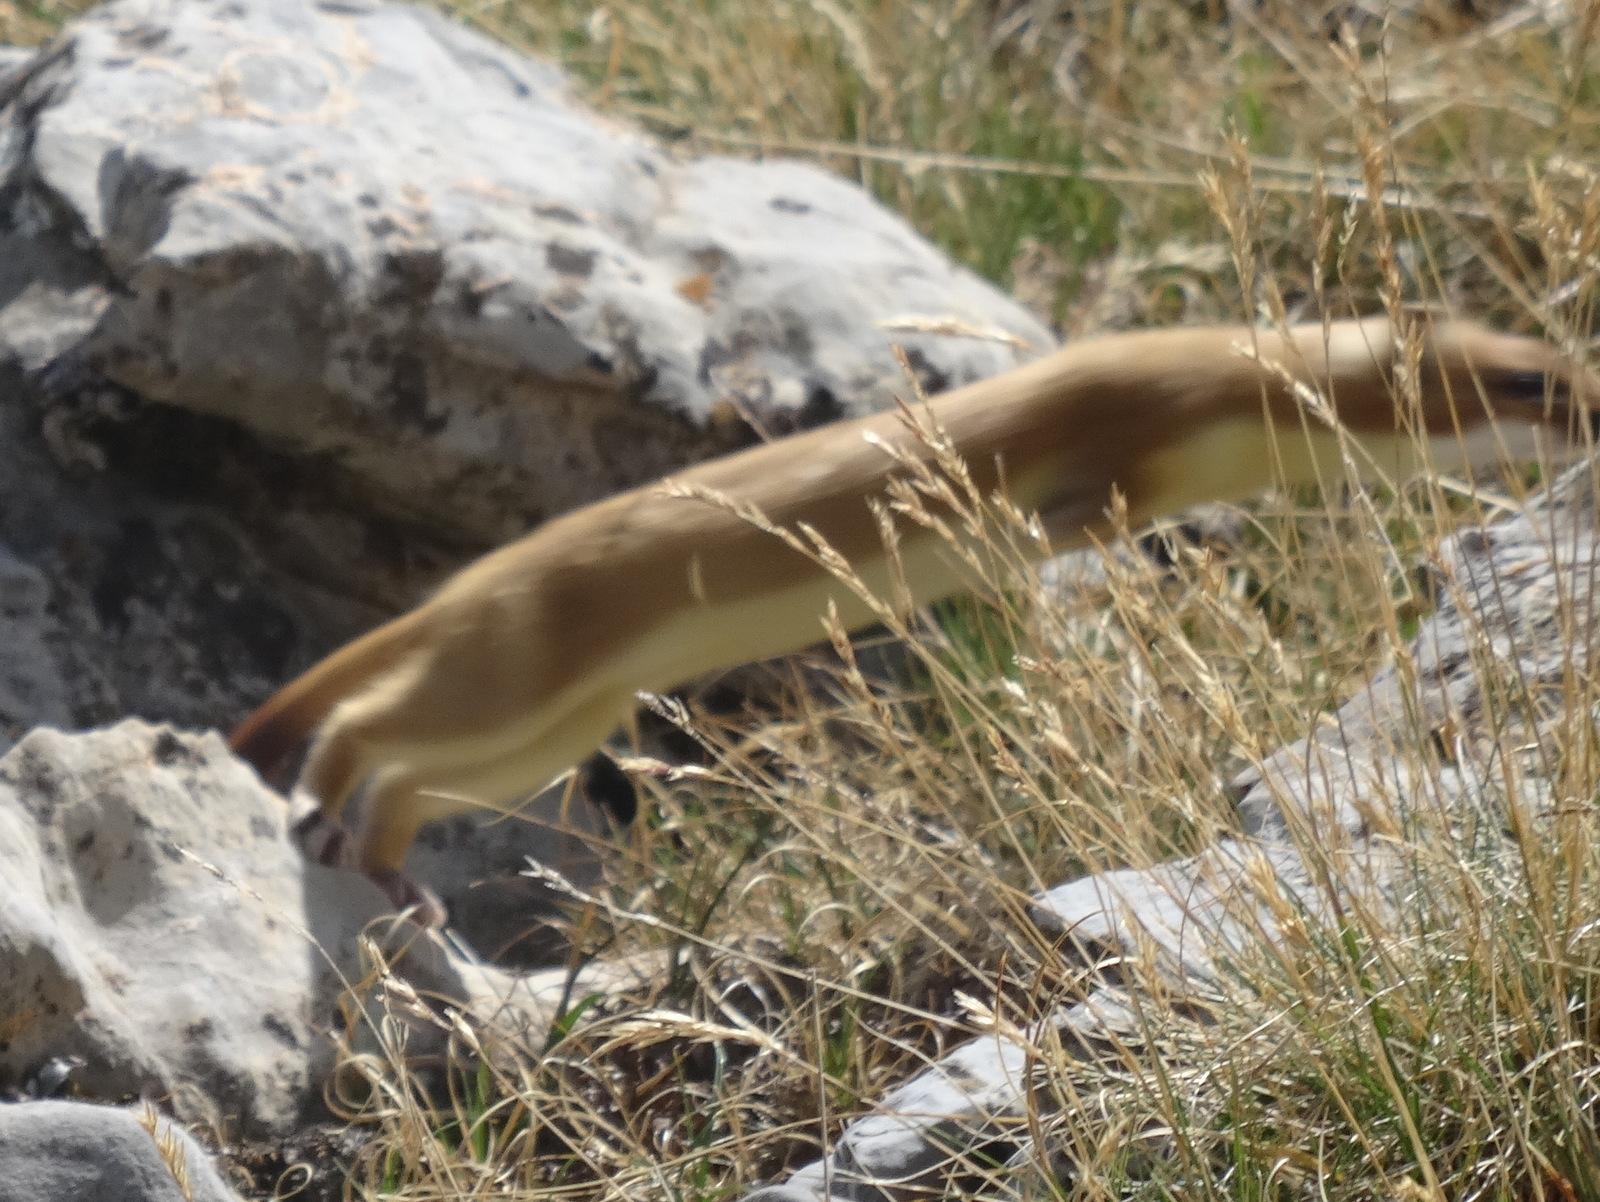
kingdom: Animalia
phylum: Chordata
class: Mammalia
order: Carnivora
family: Mustelidae
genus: Mustela
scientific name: Mustela erminea
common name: Stoat
